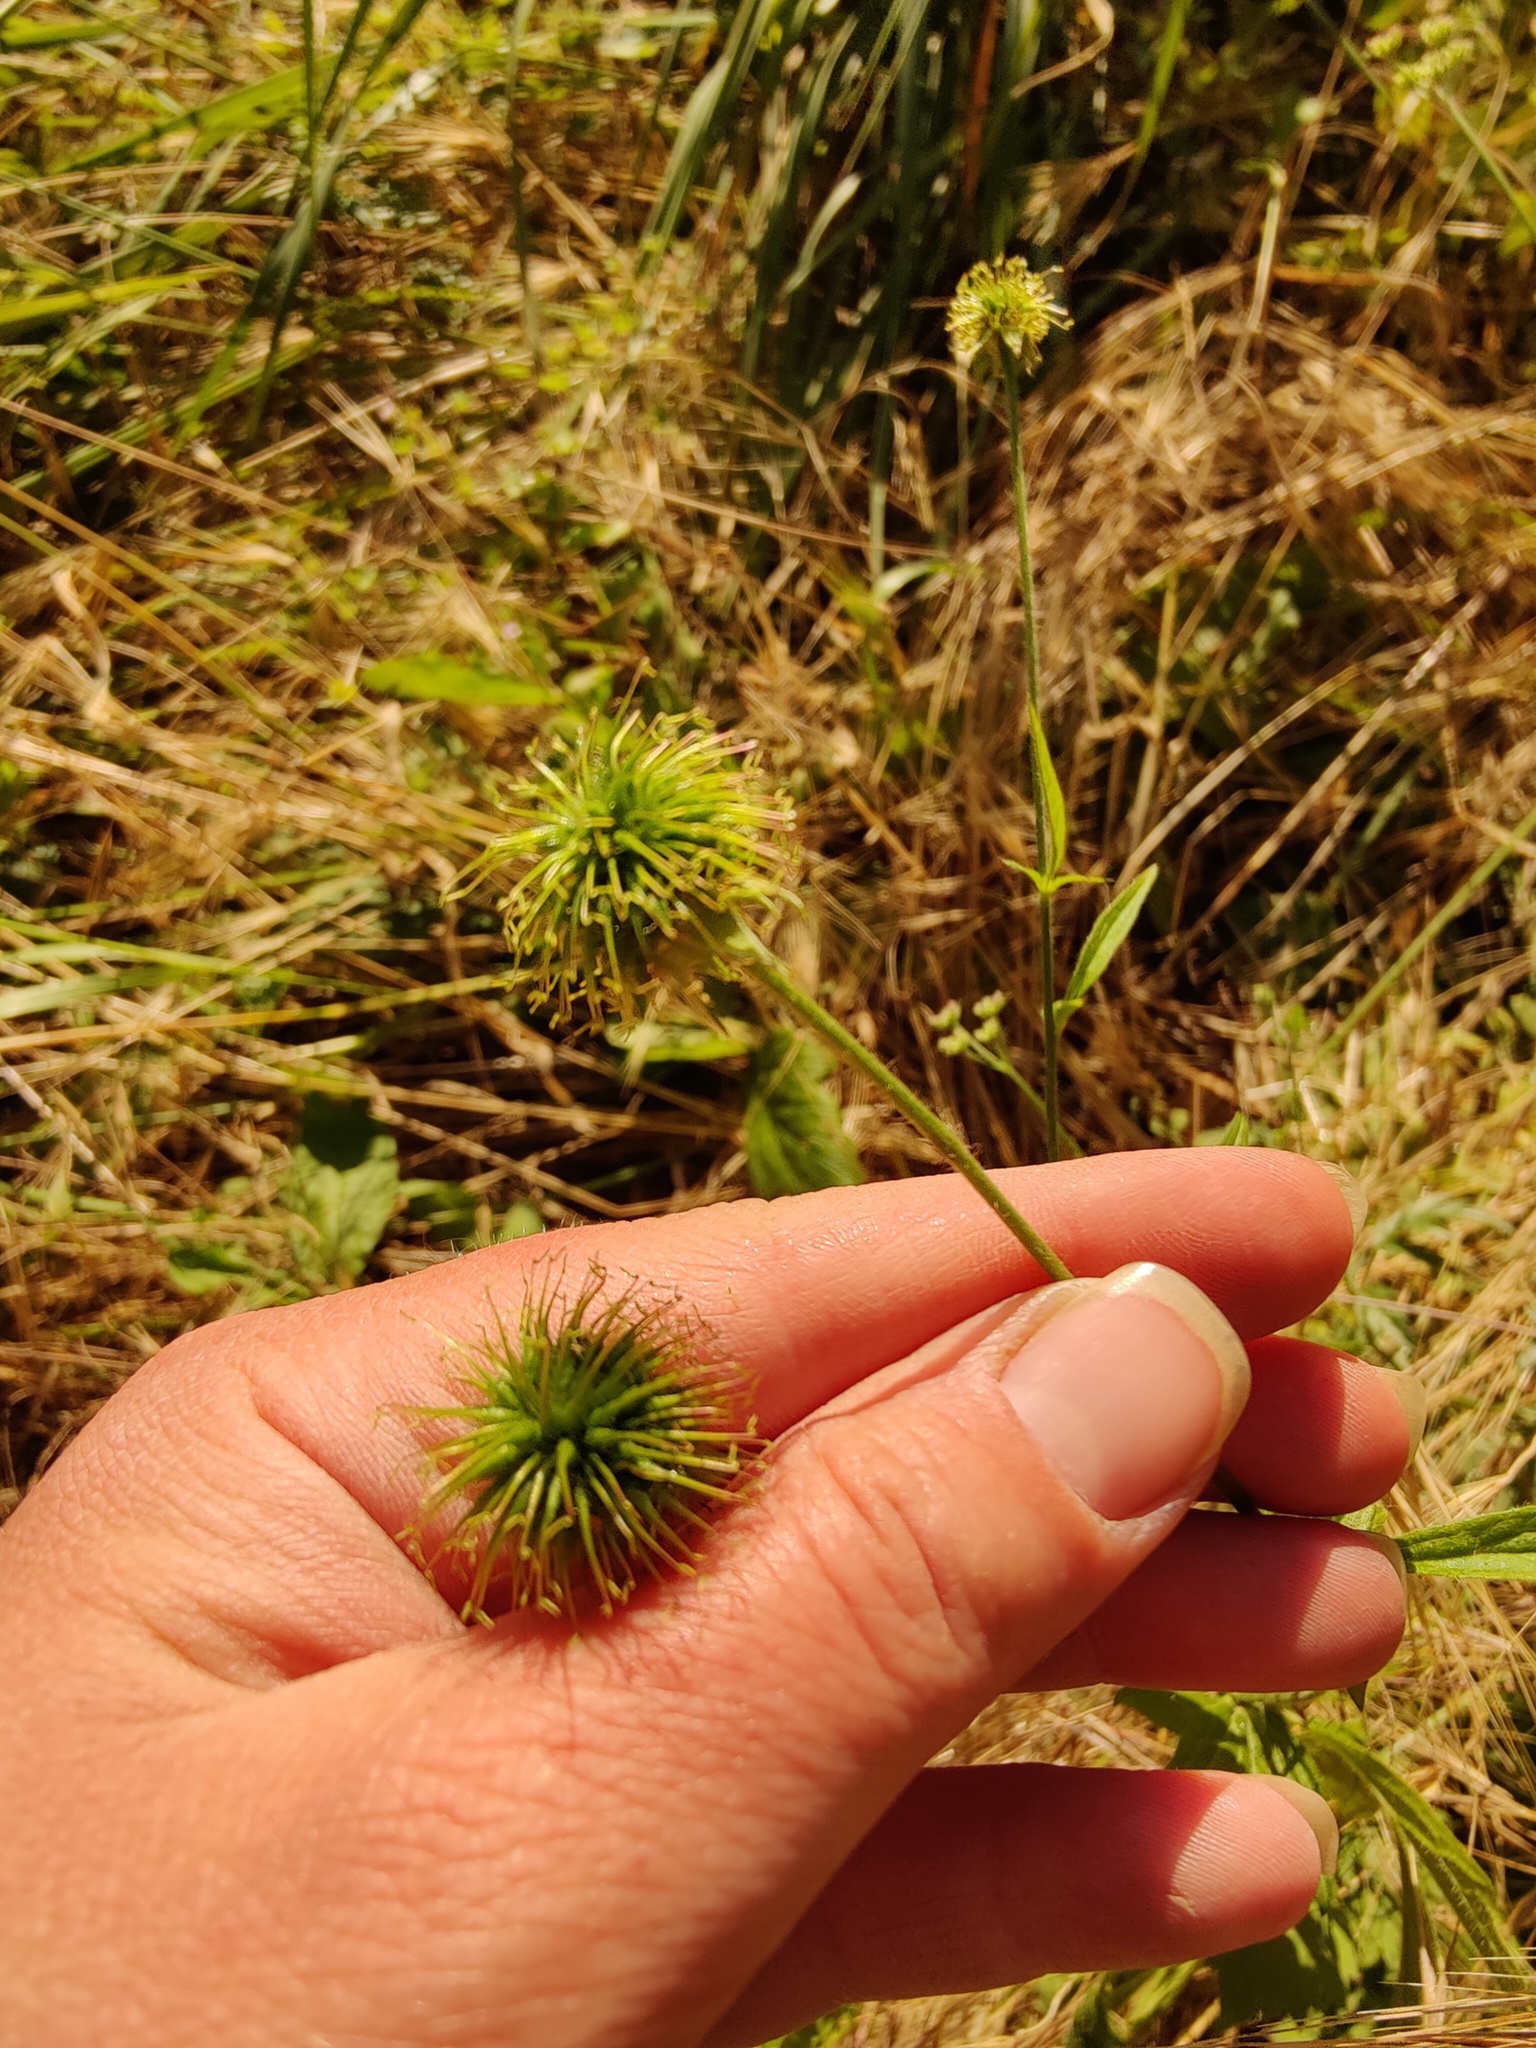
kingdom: Plantae
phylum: Tracheophyta
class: Magnoliopsida
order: Rosales
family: Rosaceae
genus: Geum
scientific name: Geum urbanum
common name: Wood avens
